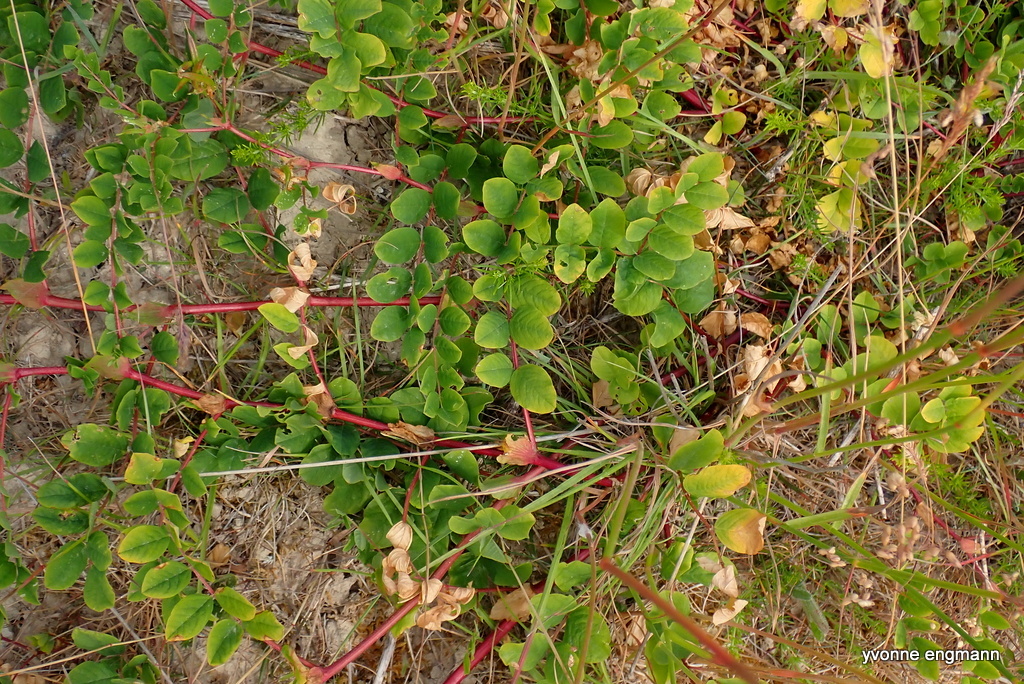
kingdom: Plantae
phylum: Tracheophyta
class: Magnoliopsida
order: Fabales
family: Fabaceae
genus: Astragalus
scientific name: Astragalus glycyphyllos
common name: Wild liquorice
